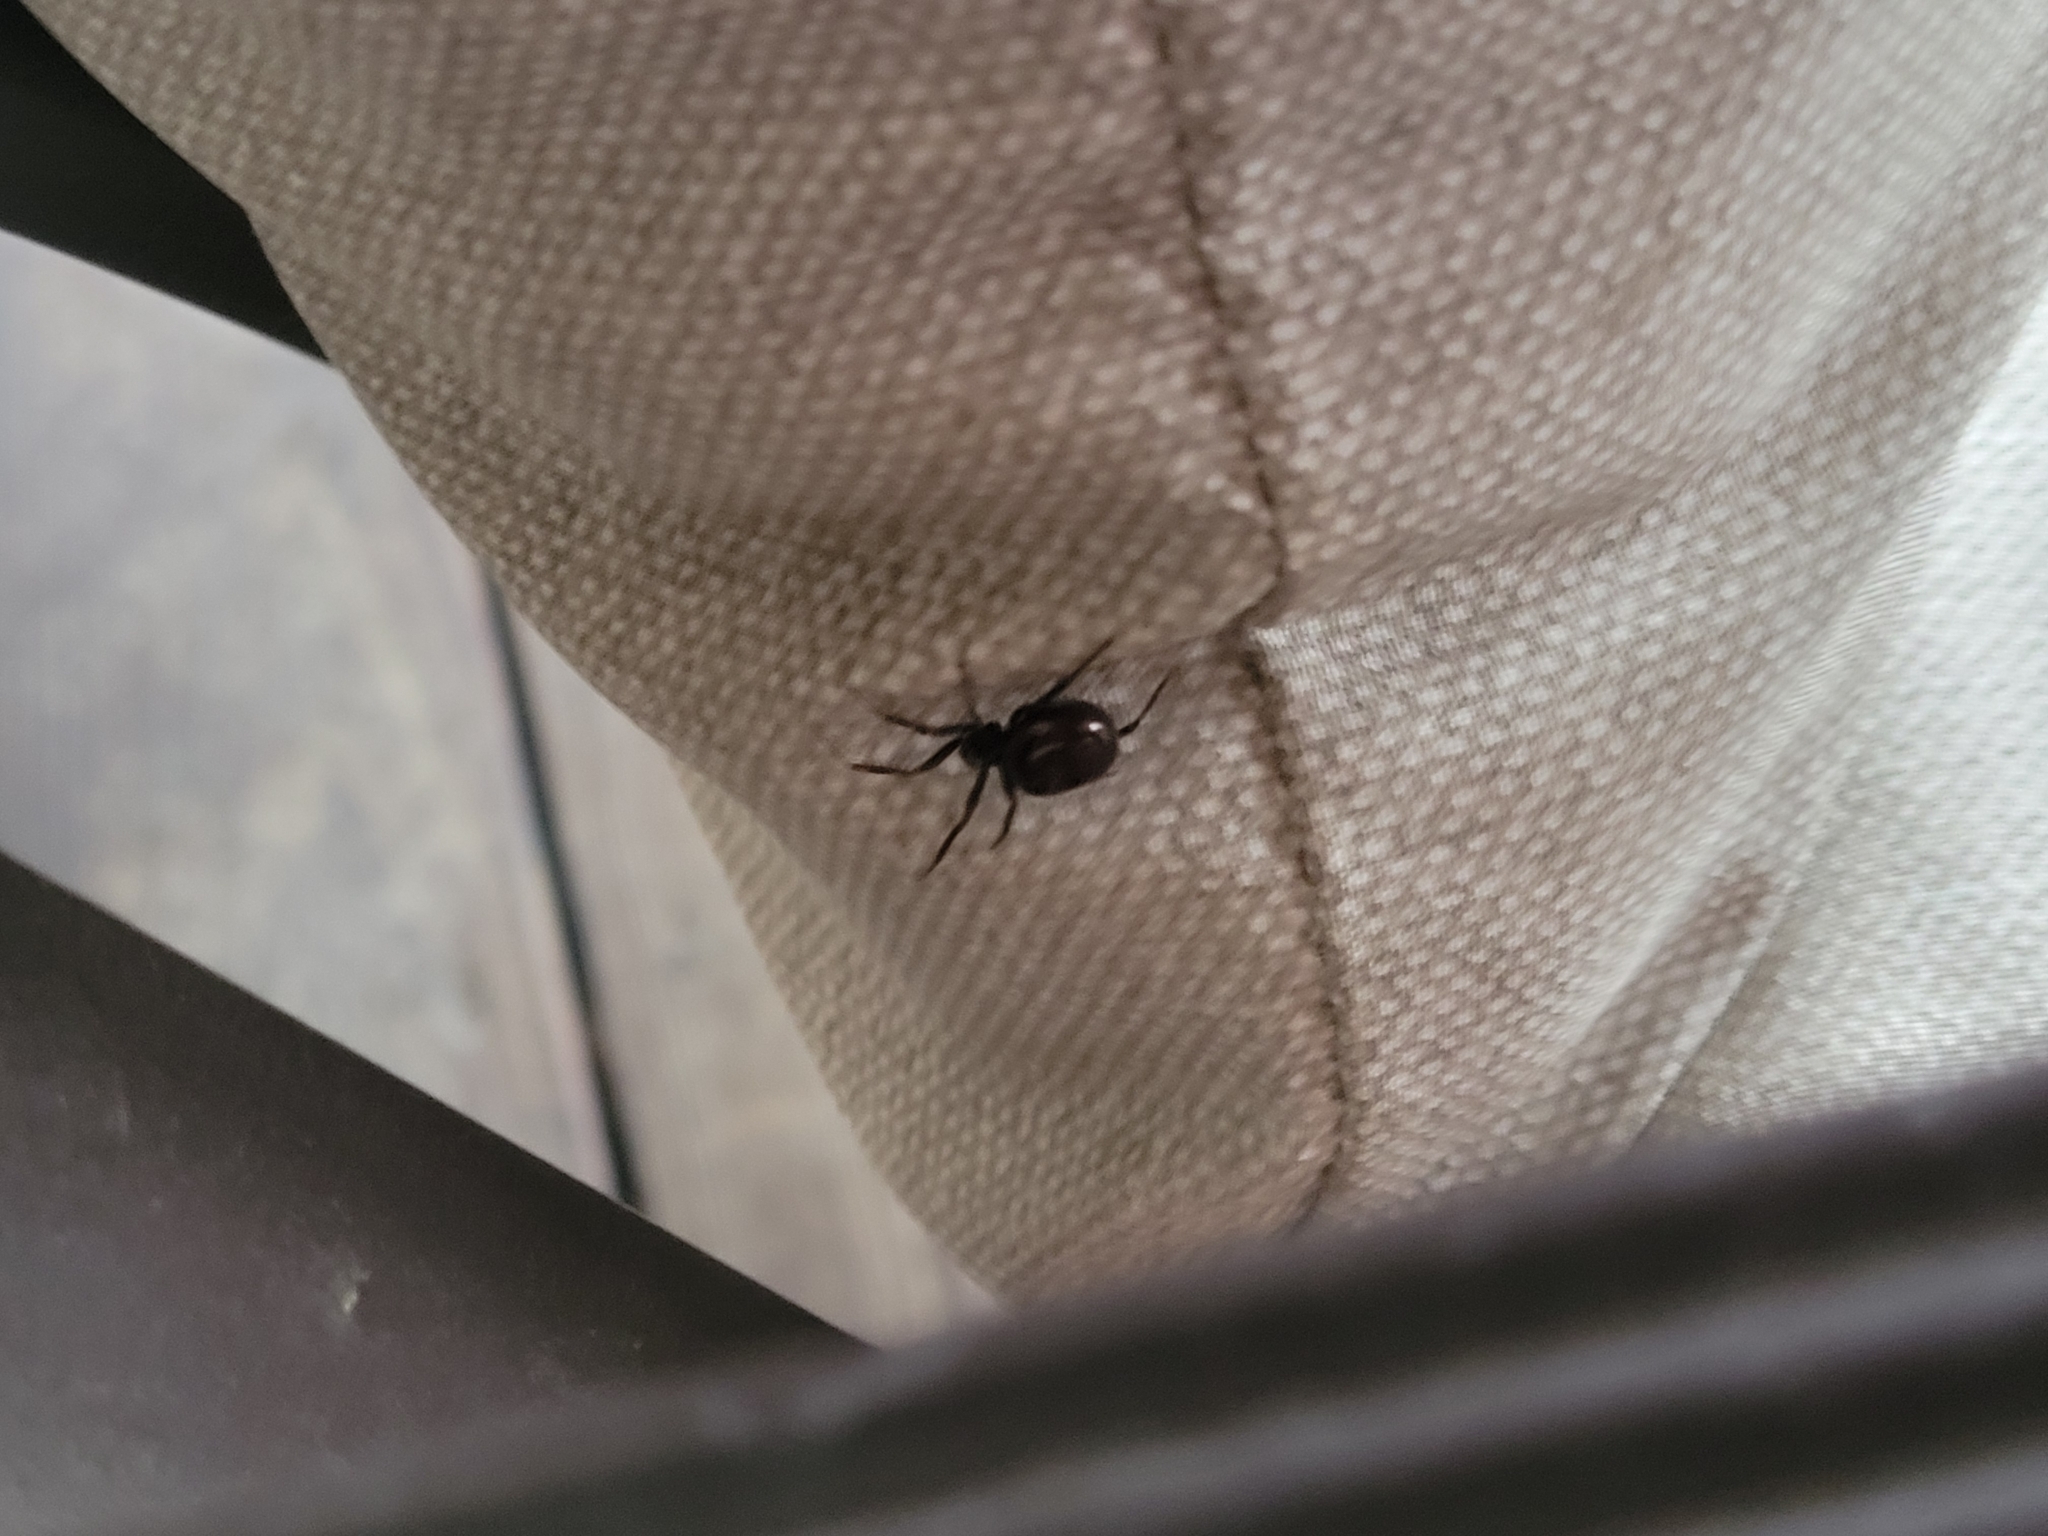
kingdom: Animalia
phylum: Arthropoda
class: Arachnida
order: Araneae
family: Theridiidae
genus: Steatoda
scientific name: Steatoda borealis
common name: Boreal combfoot
